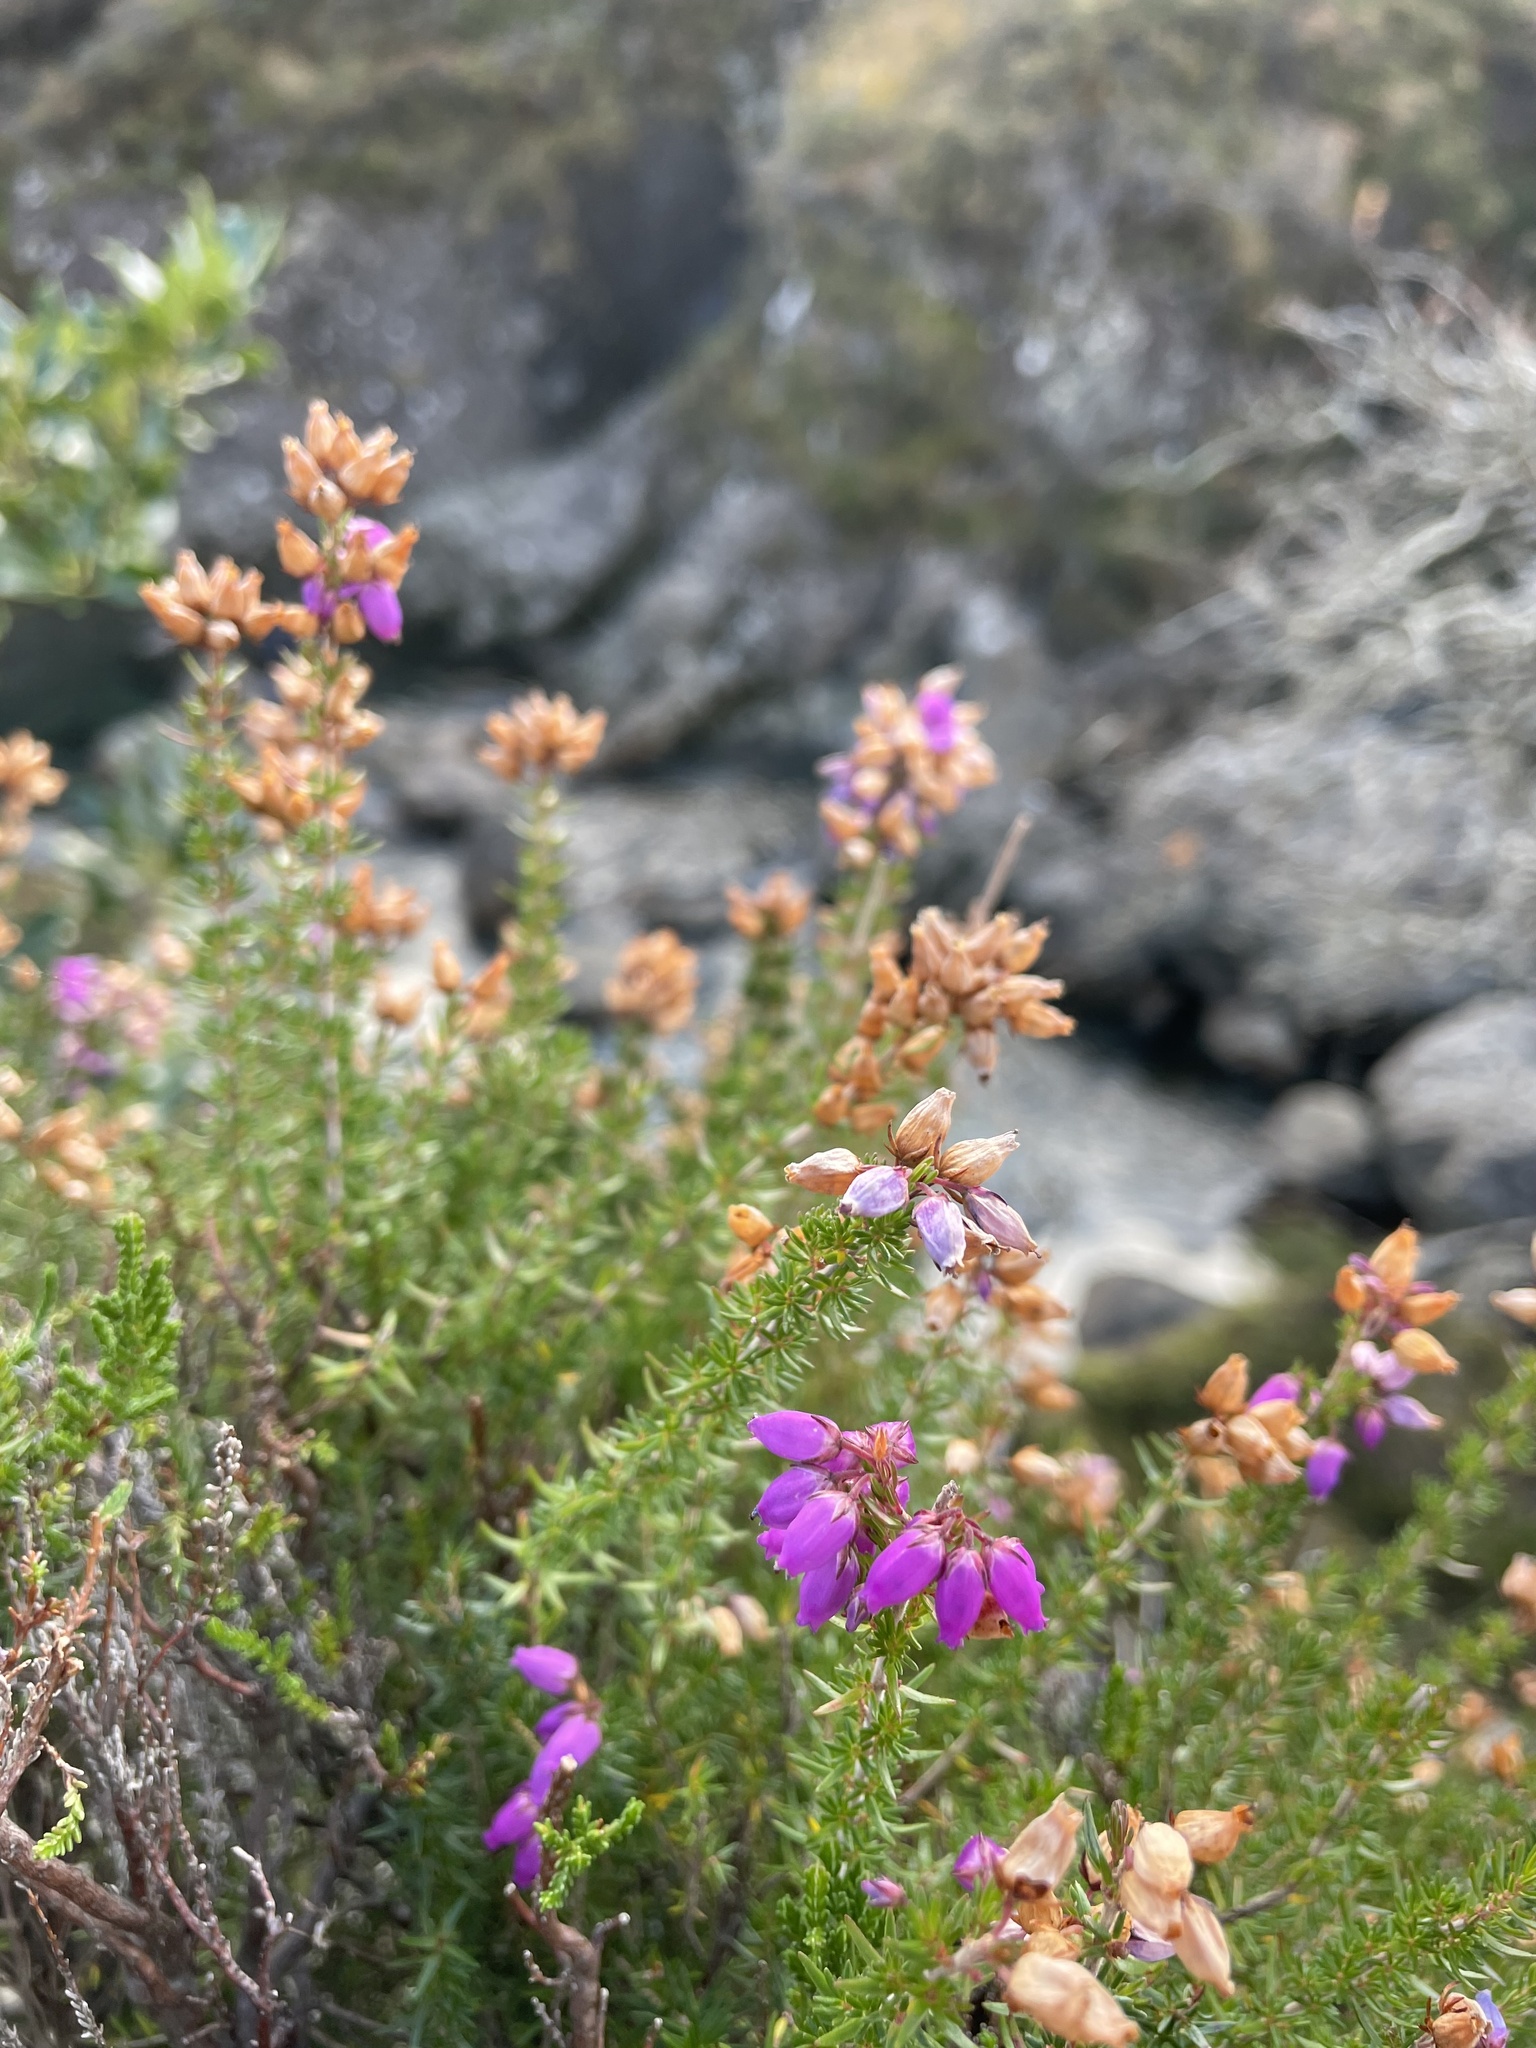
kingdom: Plantae
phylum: Tracheophyta
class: Magnoliopsida
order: Ericales
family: Ericaceae
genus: Erica
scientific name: Erica cinerea
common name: Bell heather
